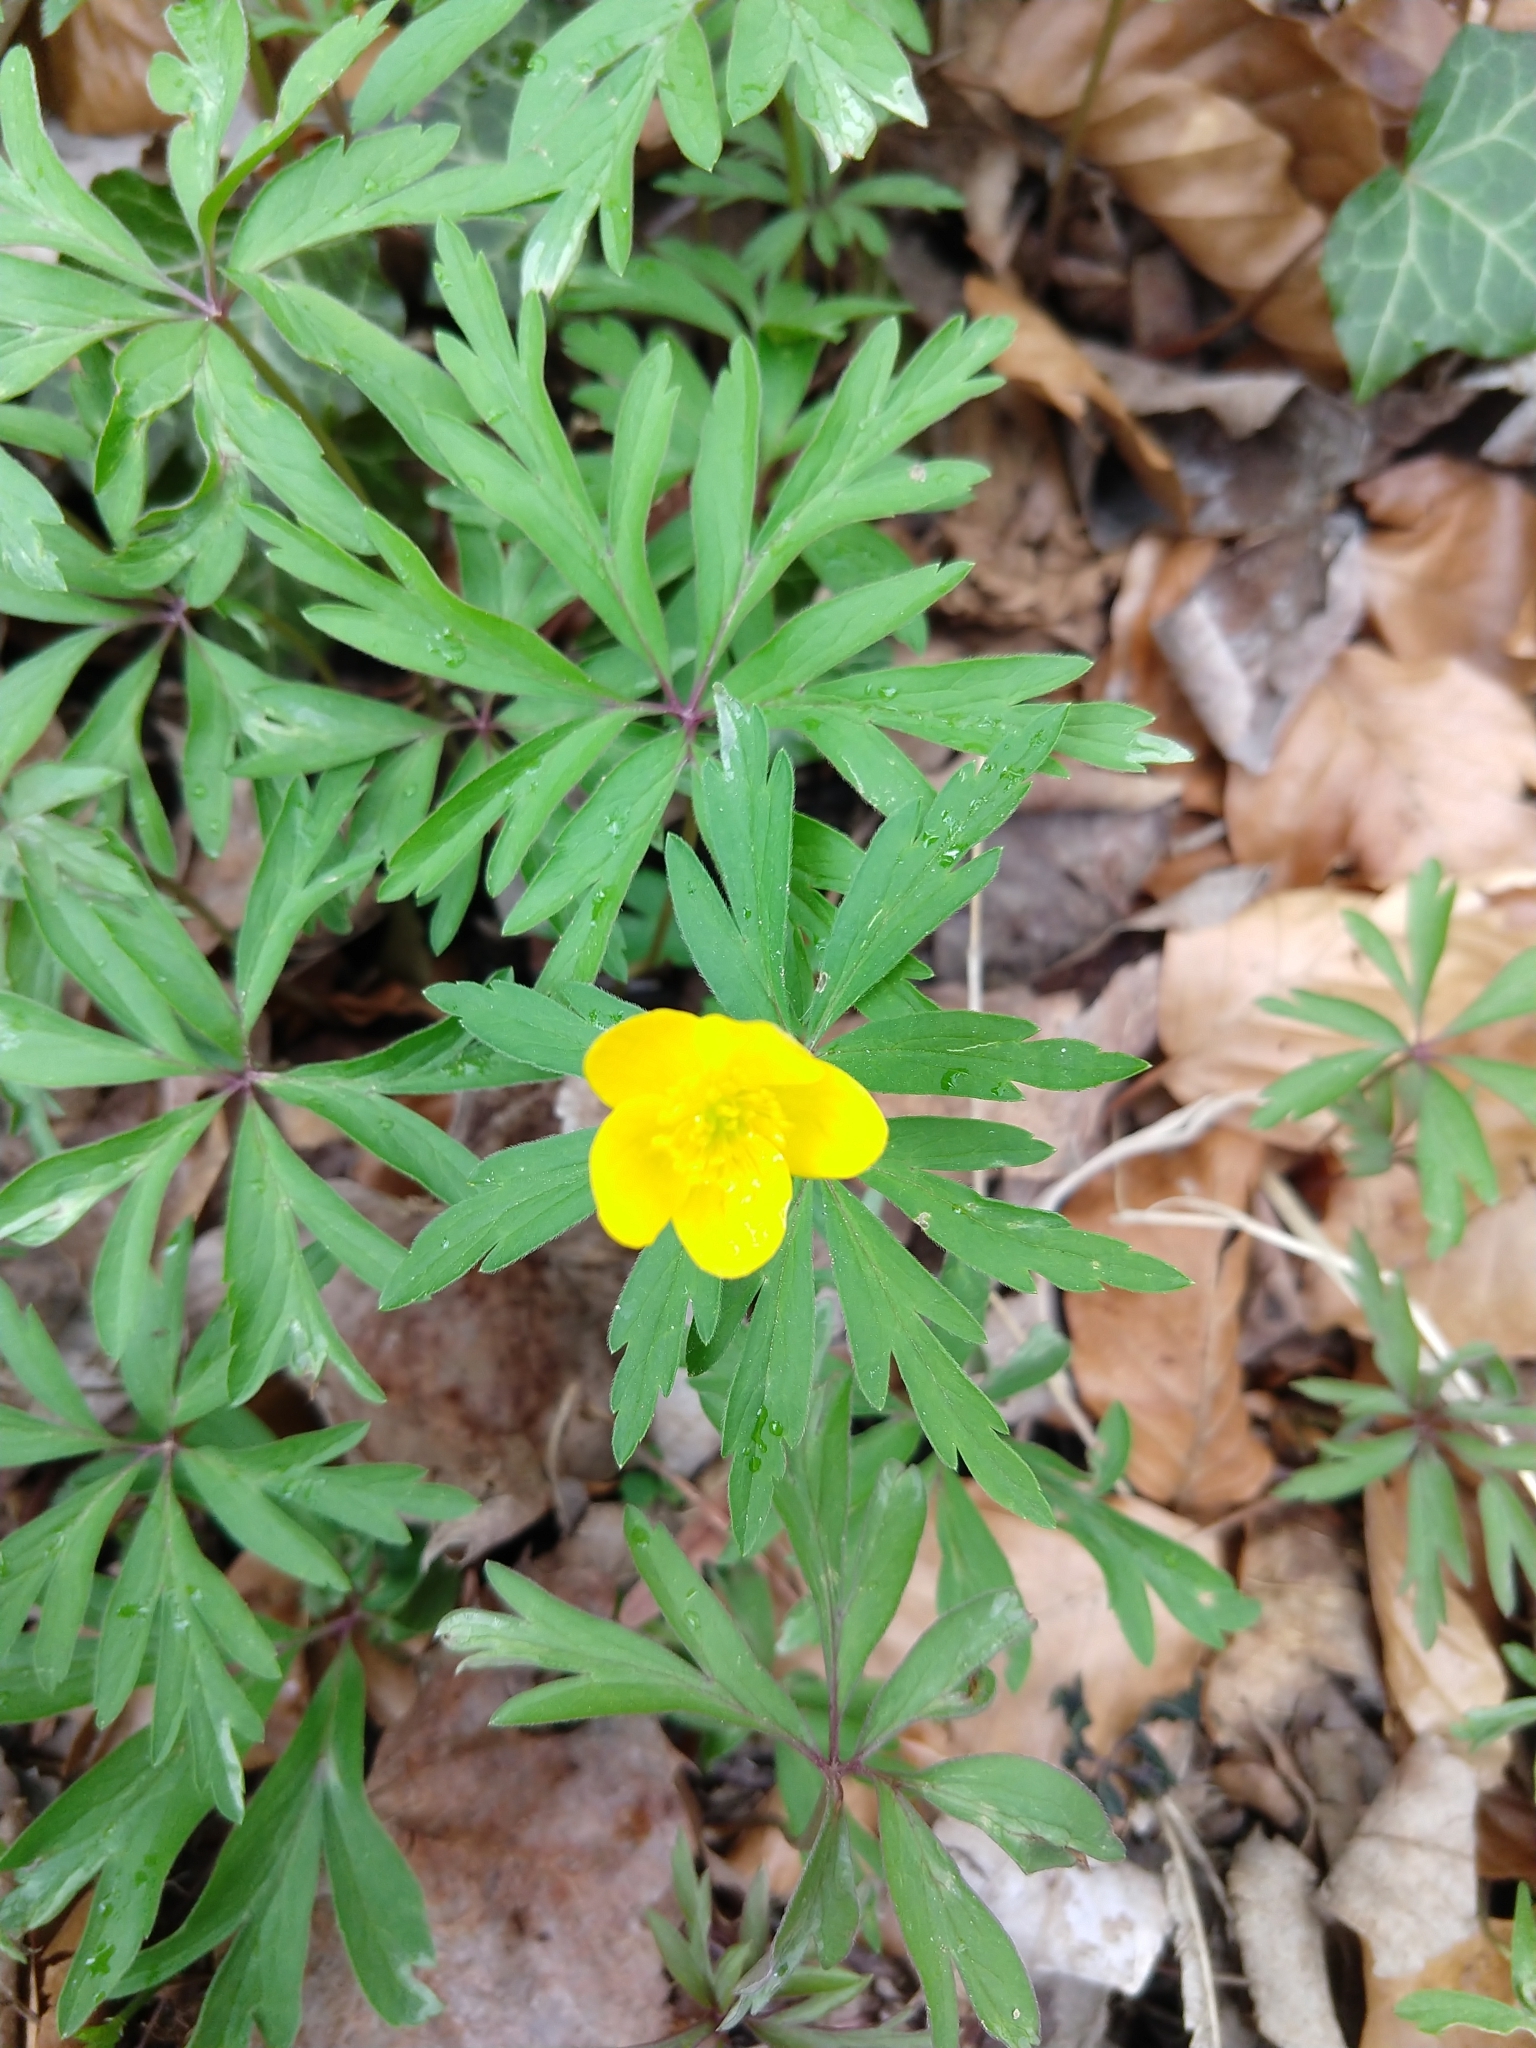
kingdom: Plantae
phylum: Tracheophyta
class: Magnoliopsida
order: Ranunculales
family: Ranunculaceae
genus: Anemone
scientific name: Anemone ranunculoides
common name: Yellow anemone
